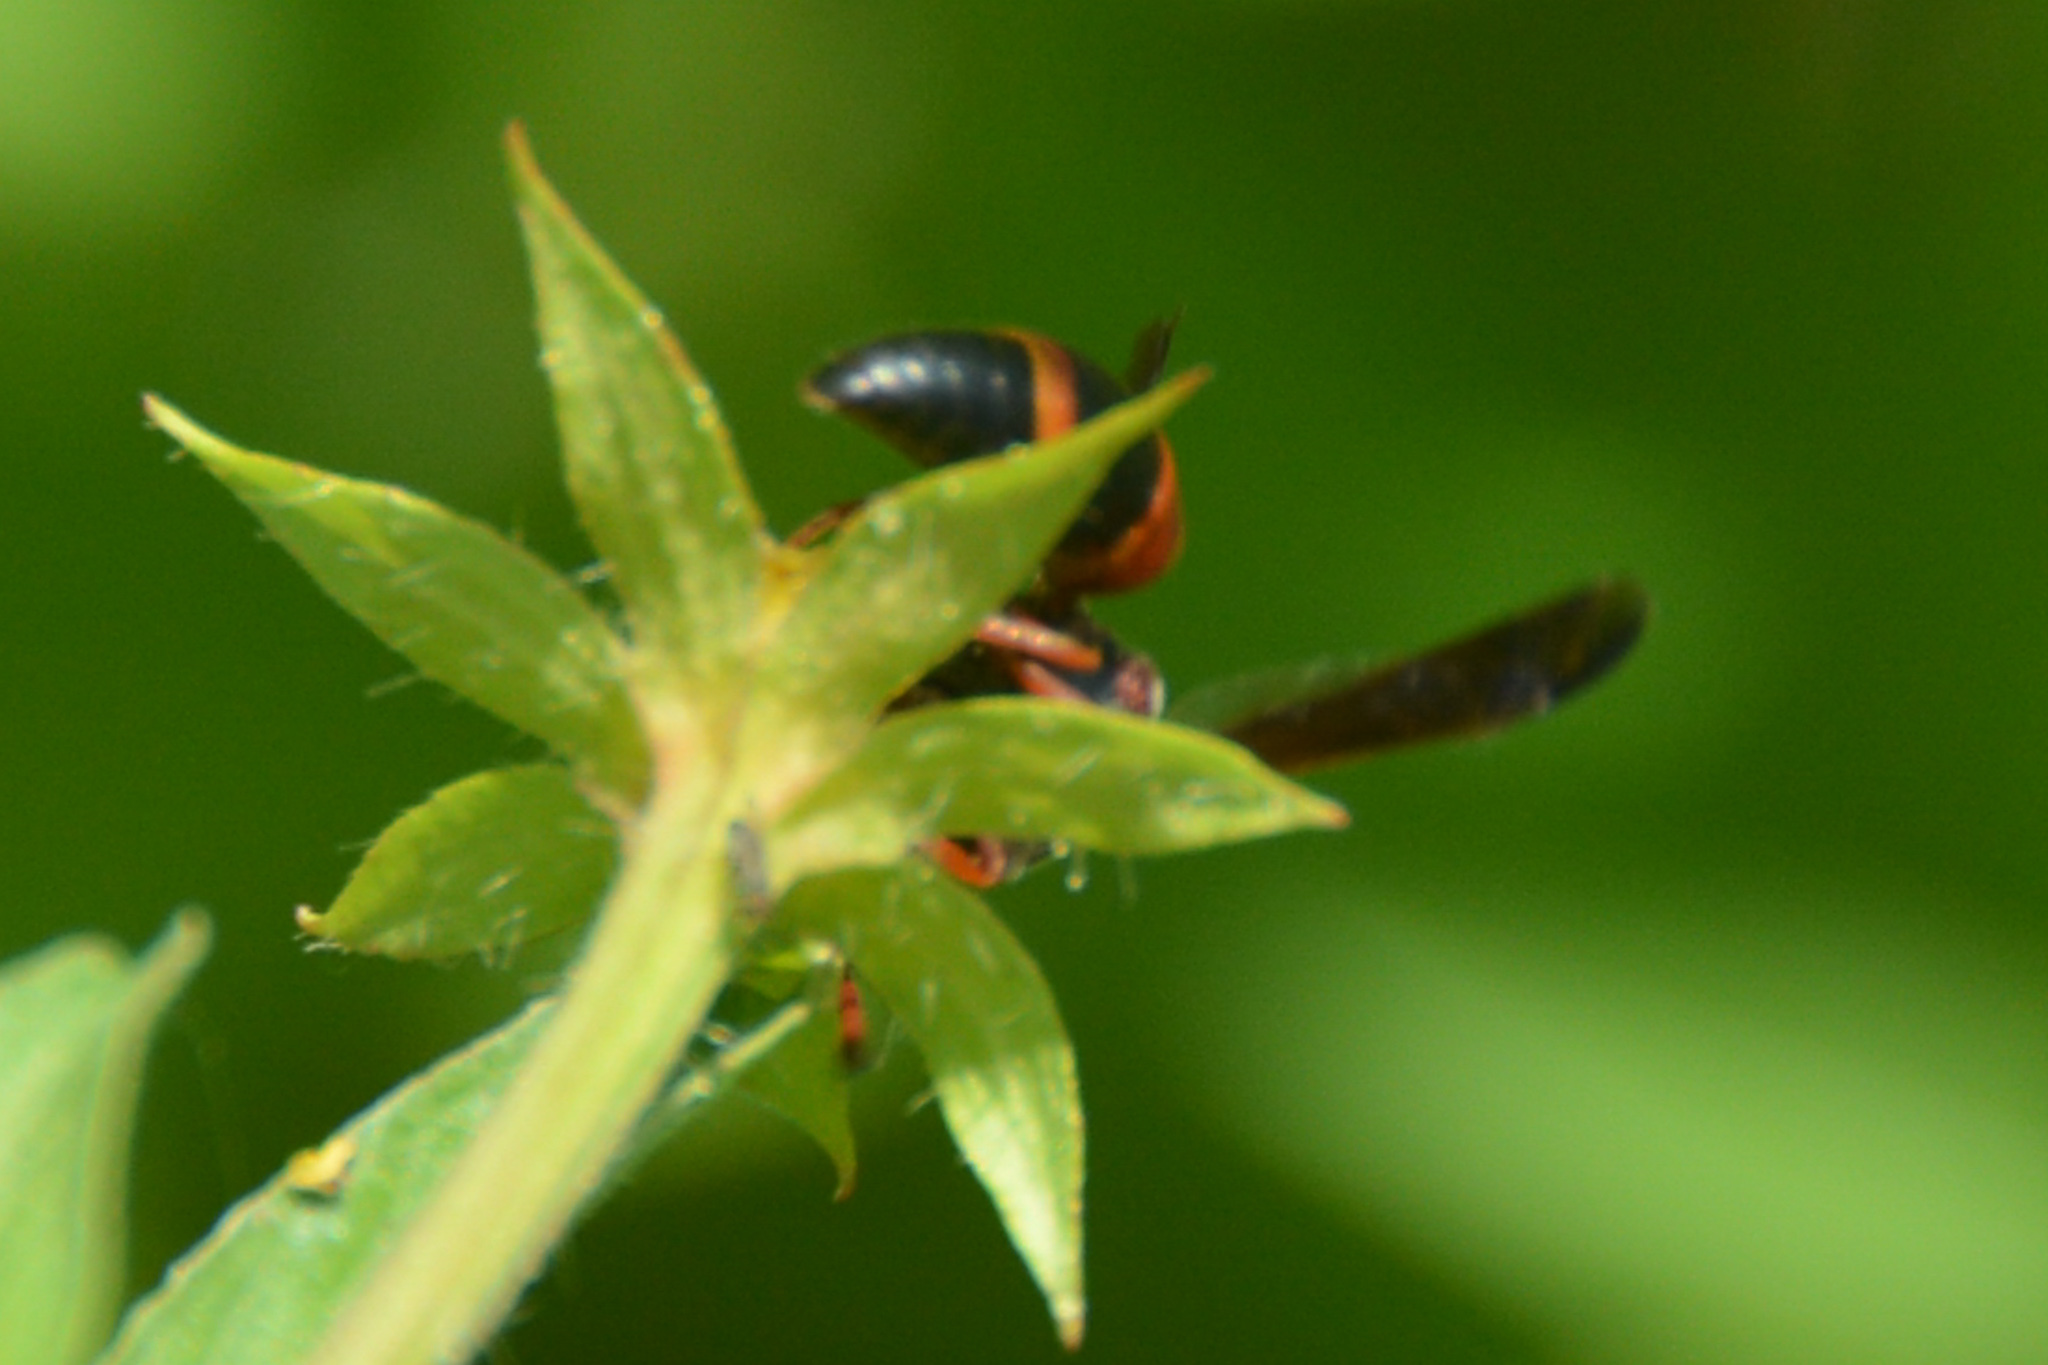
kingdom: Animalia
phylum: Arthropoda
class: Insecta
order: Hymenoptera
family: Eumenidae
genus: Pachodynerus
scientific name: Pachodynerus erynnis
